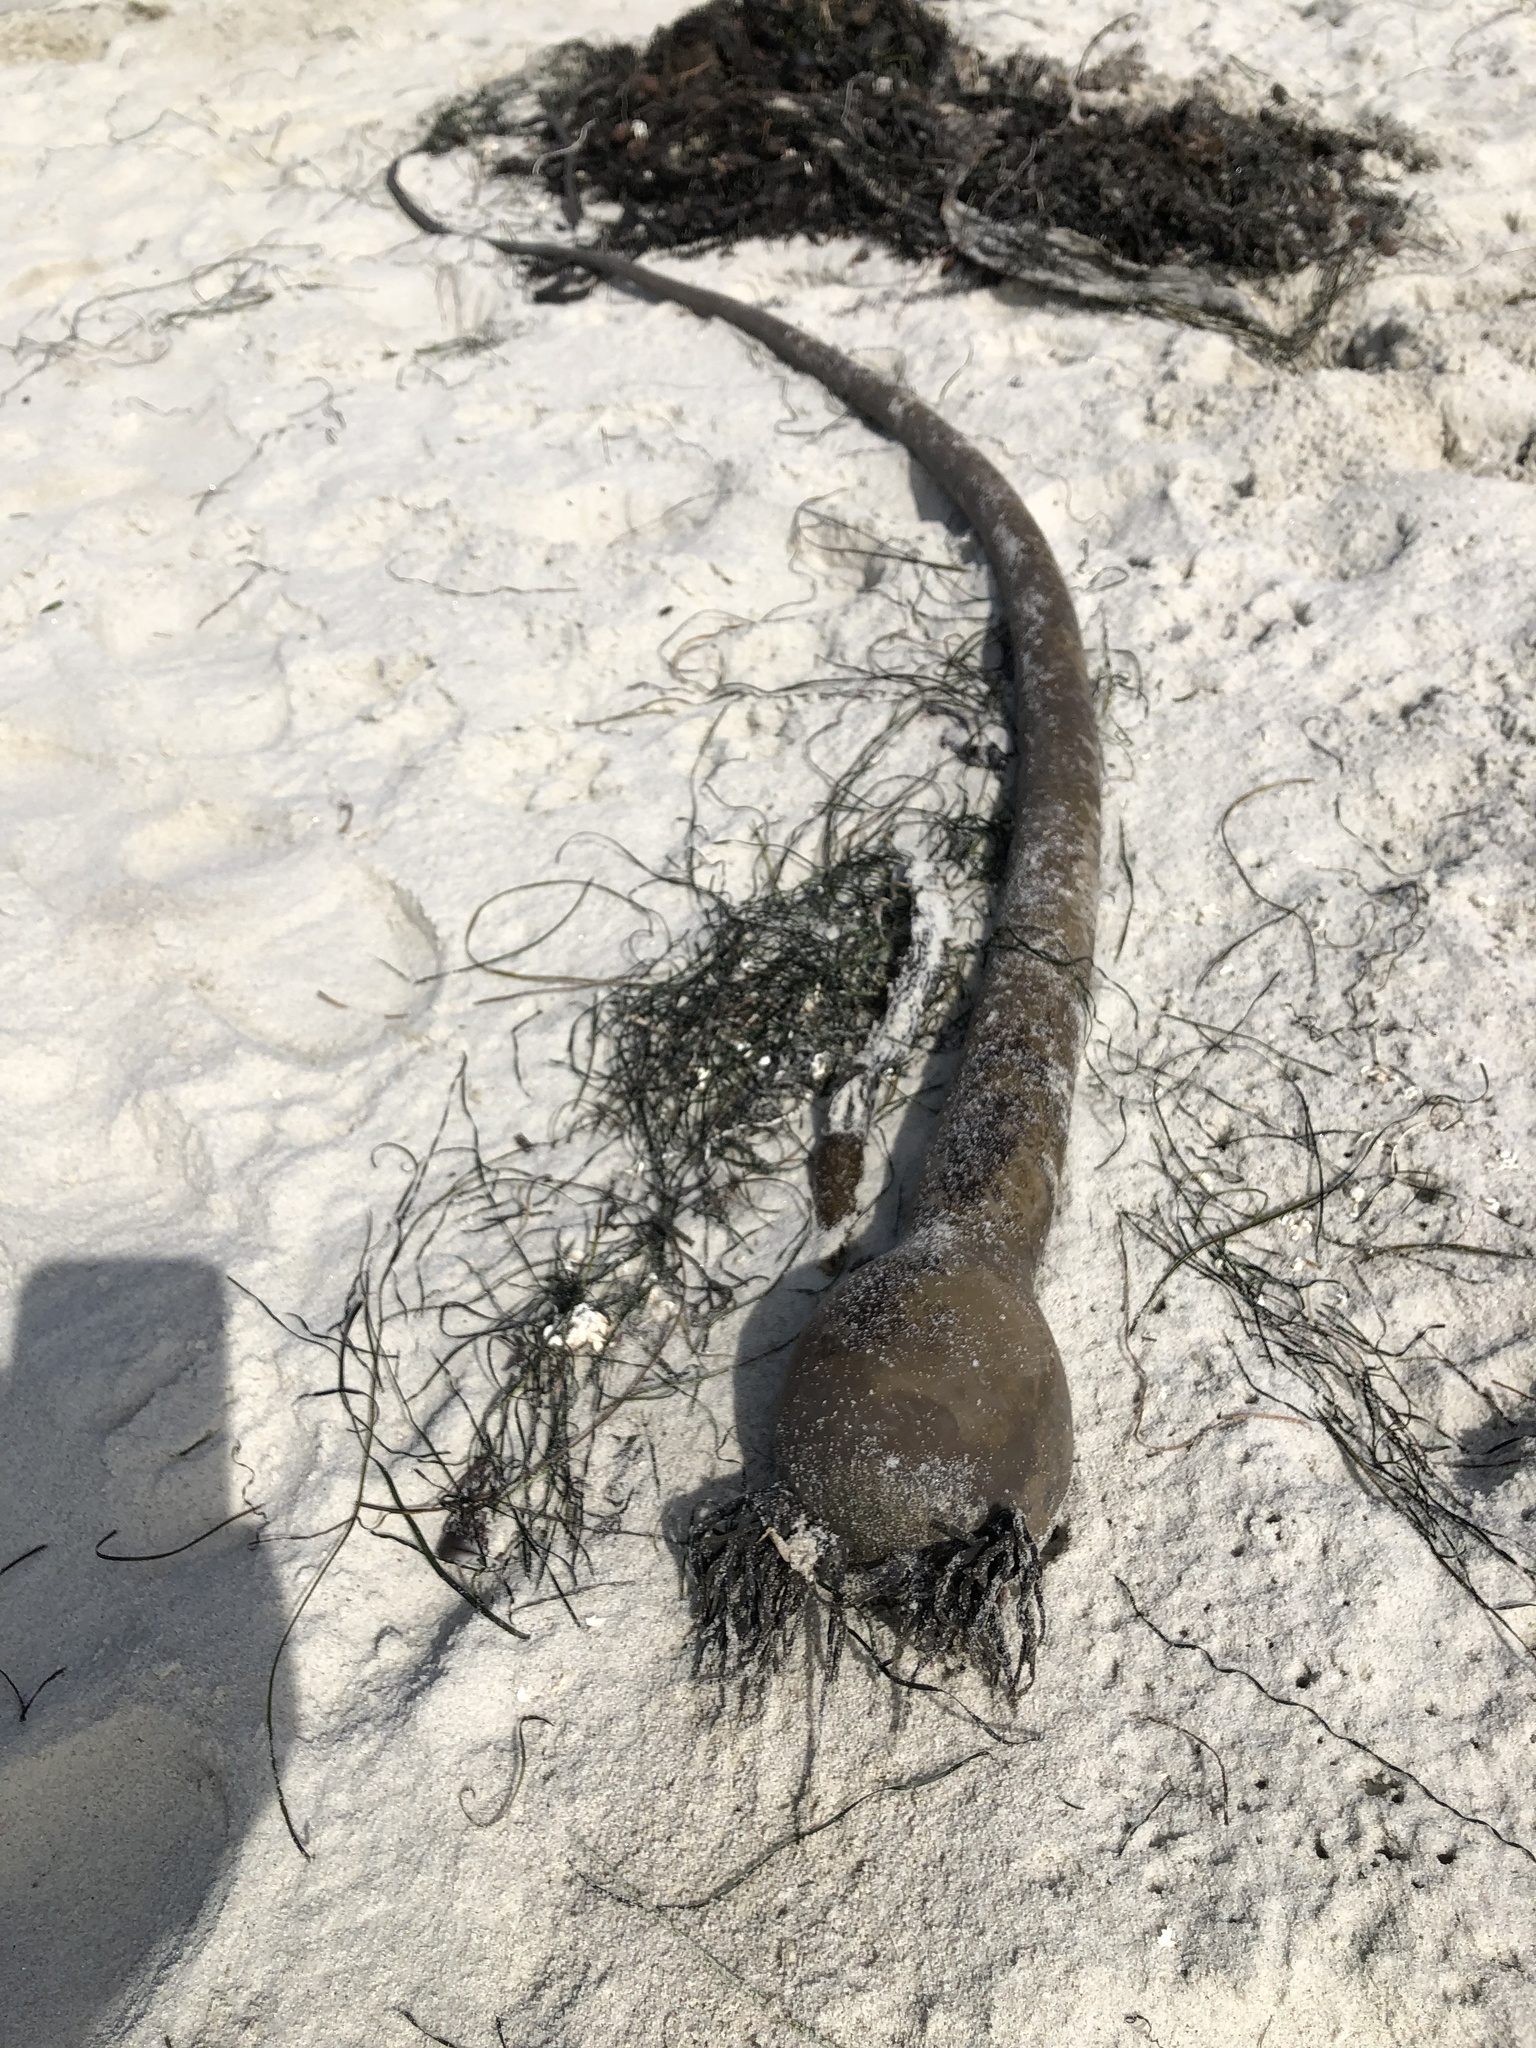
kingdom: Chromista
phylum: Ochrophyta
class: Phaeophyceae
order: Laminariales
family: Laminariaceae
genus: Nereocystis
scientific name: Nereocystis luetkeana
